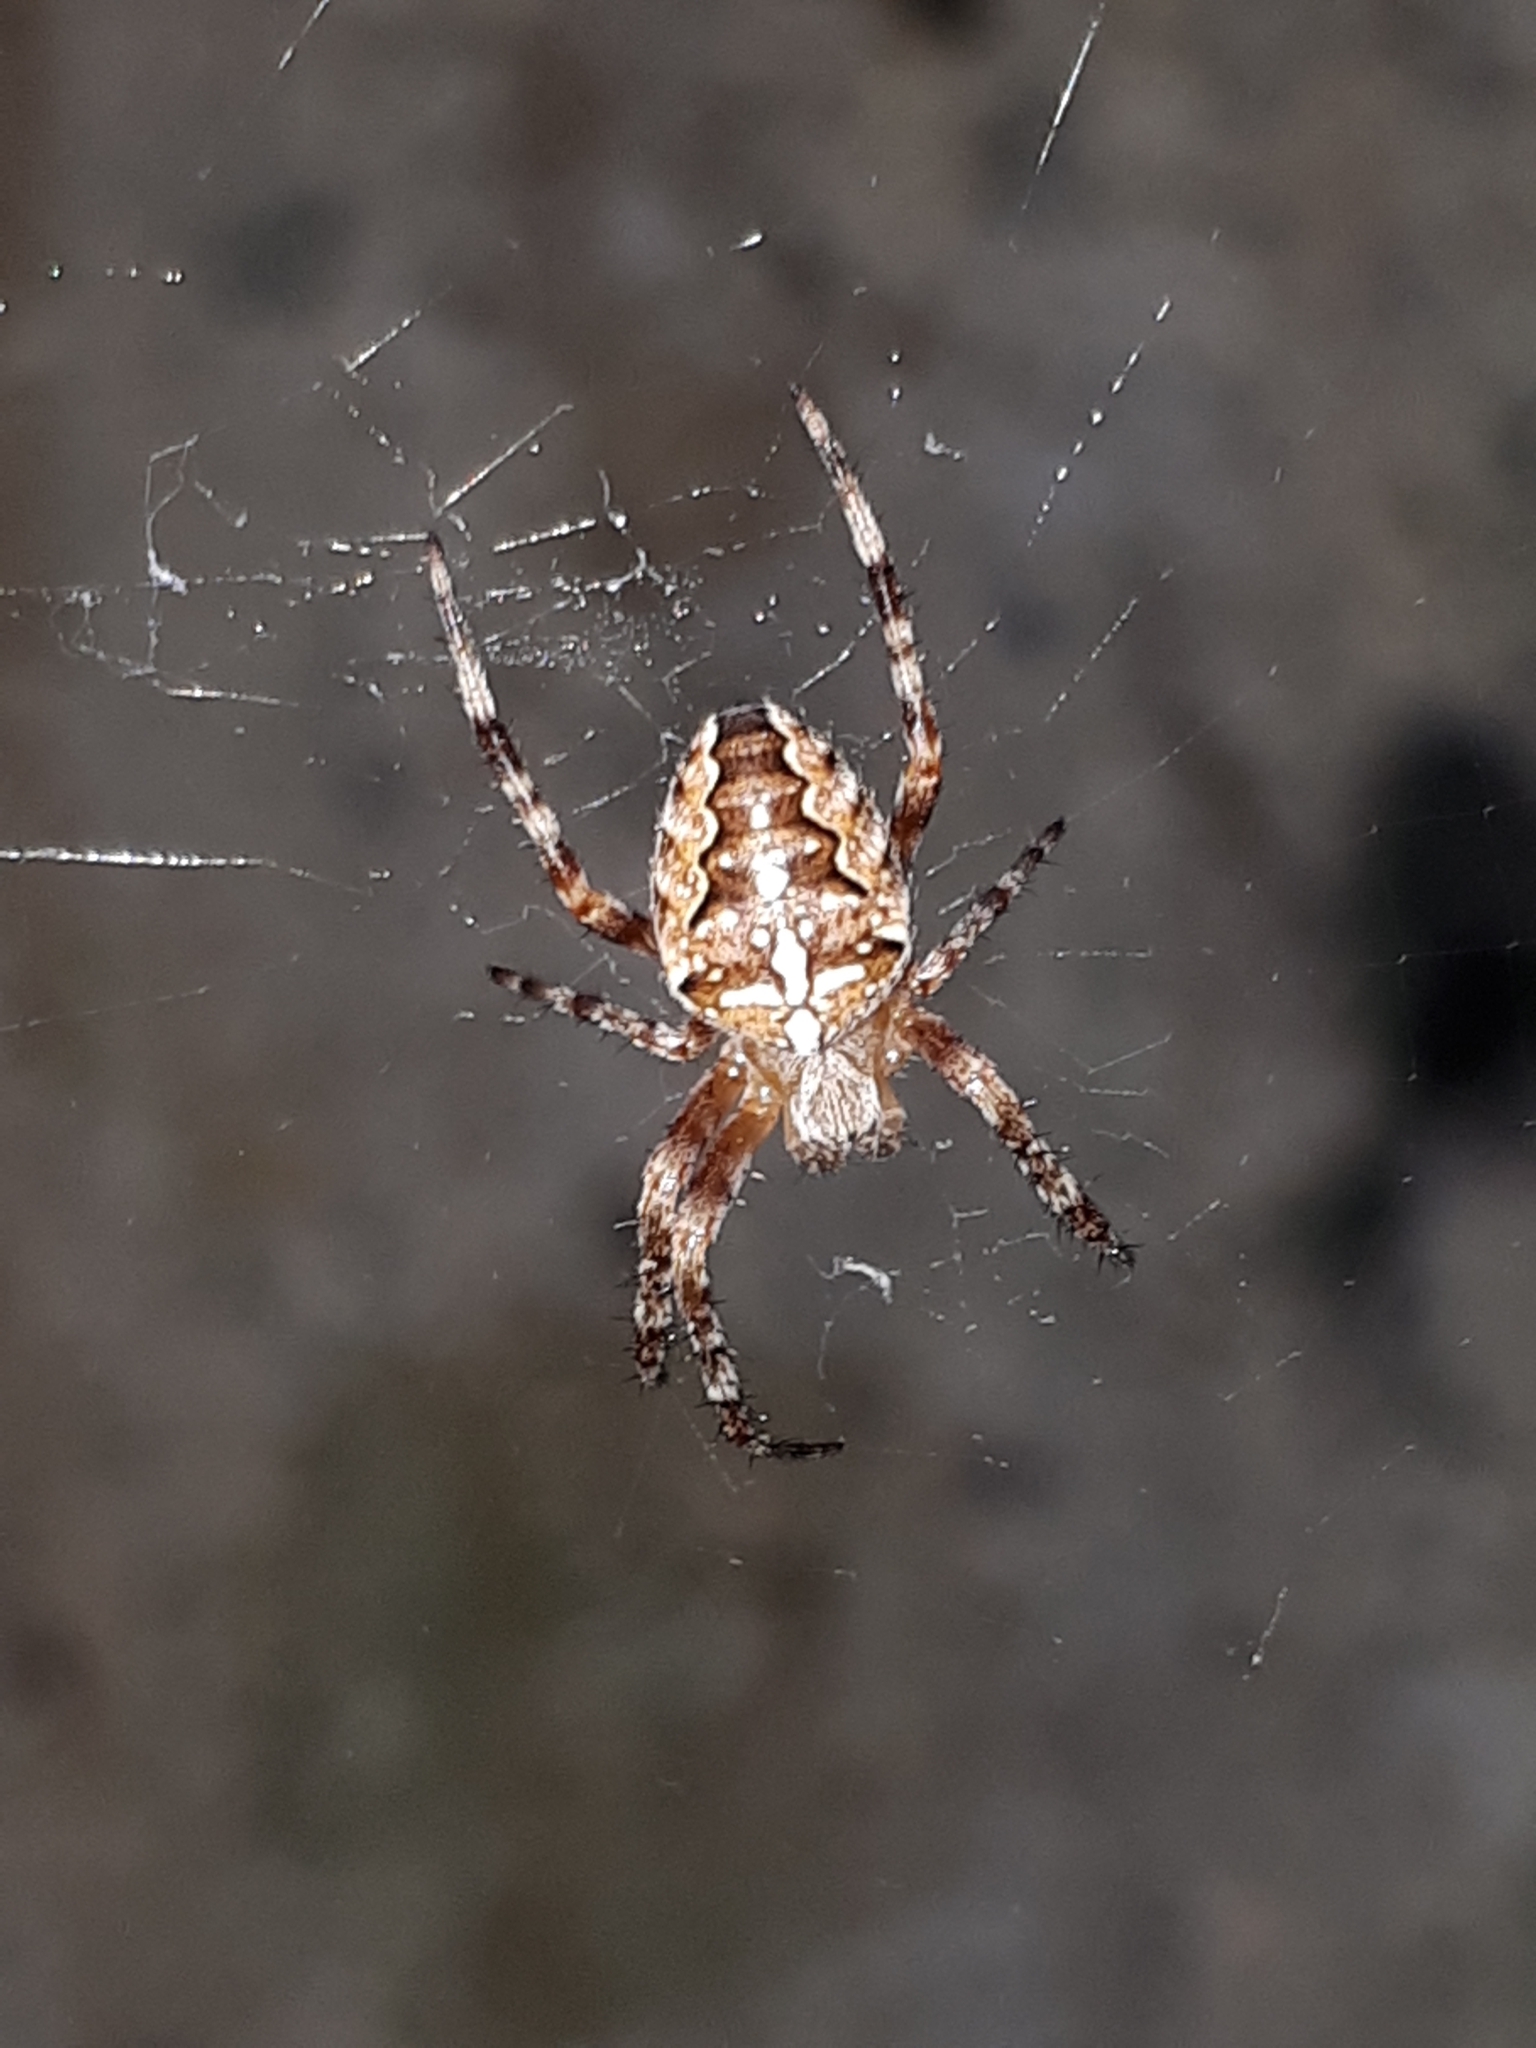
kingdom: Animalia
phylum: Arthropoda
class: Arachnida
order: Araneae
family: Araneidae
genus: Araneus
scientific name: Araneus diadematus
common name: Cross orbweaver
